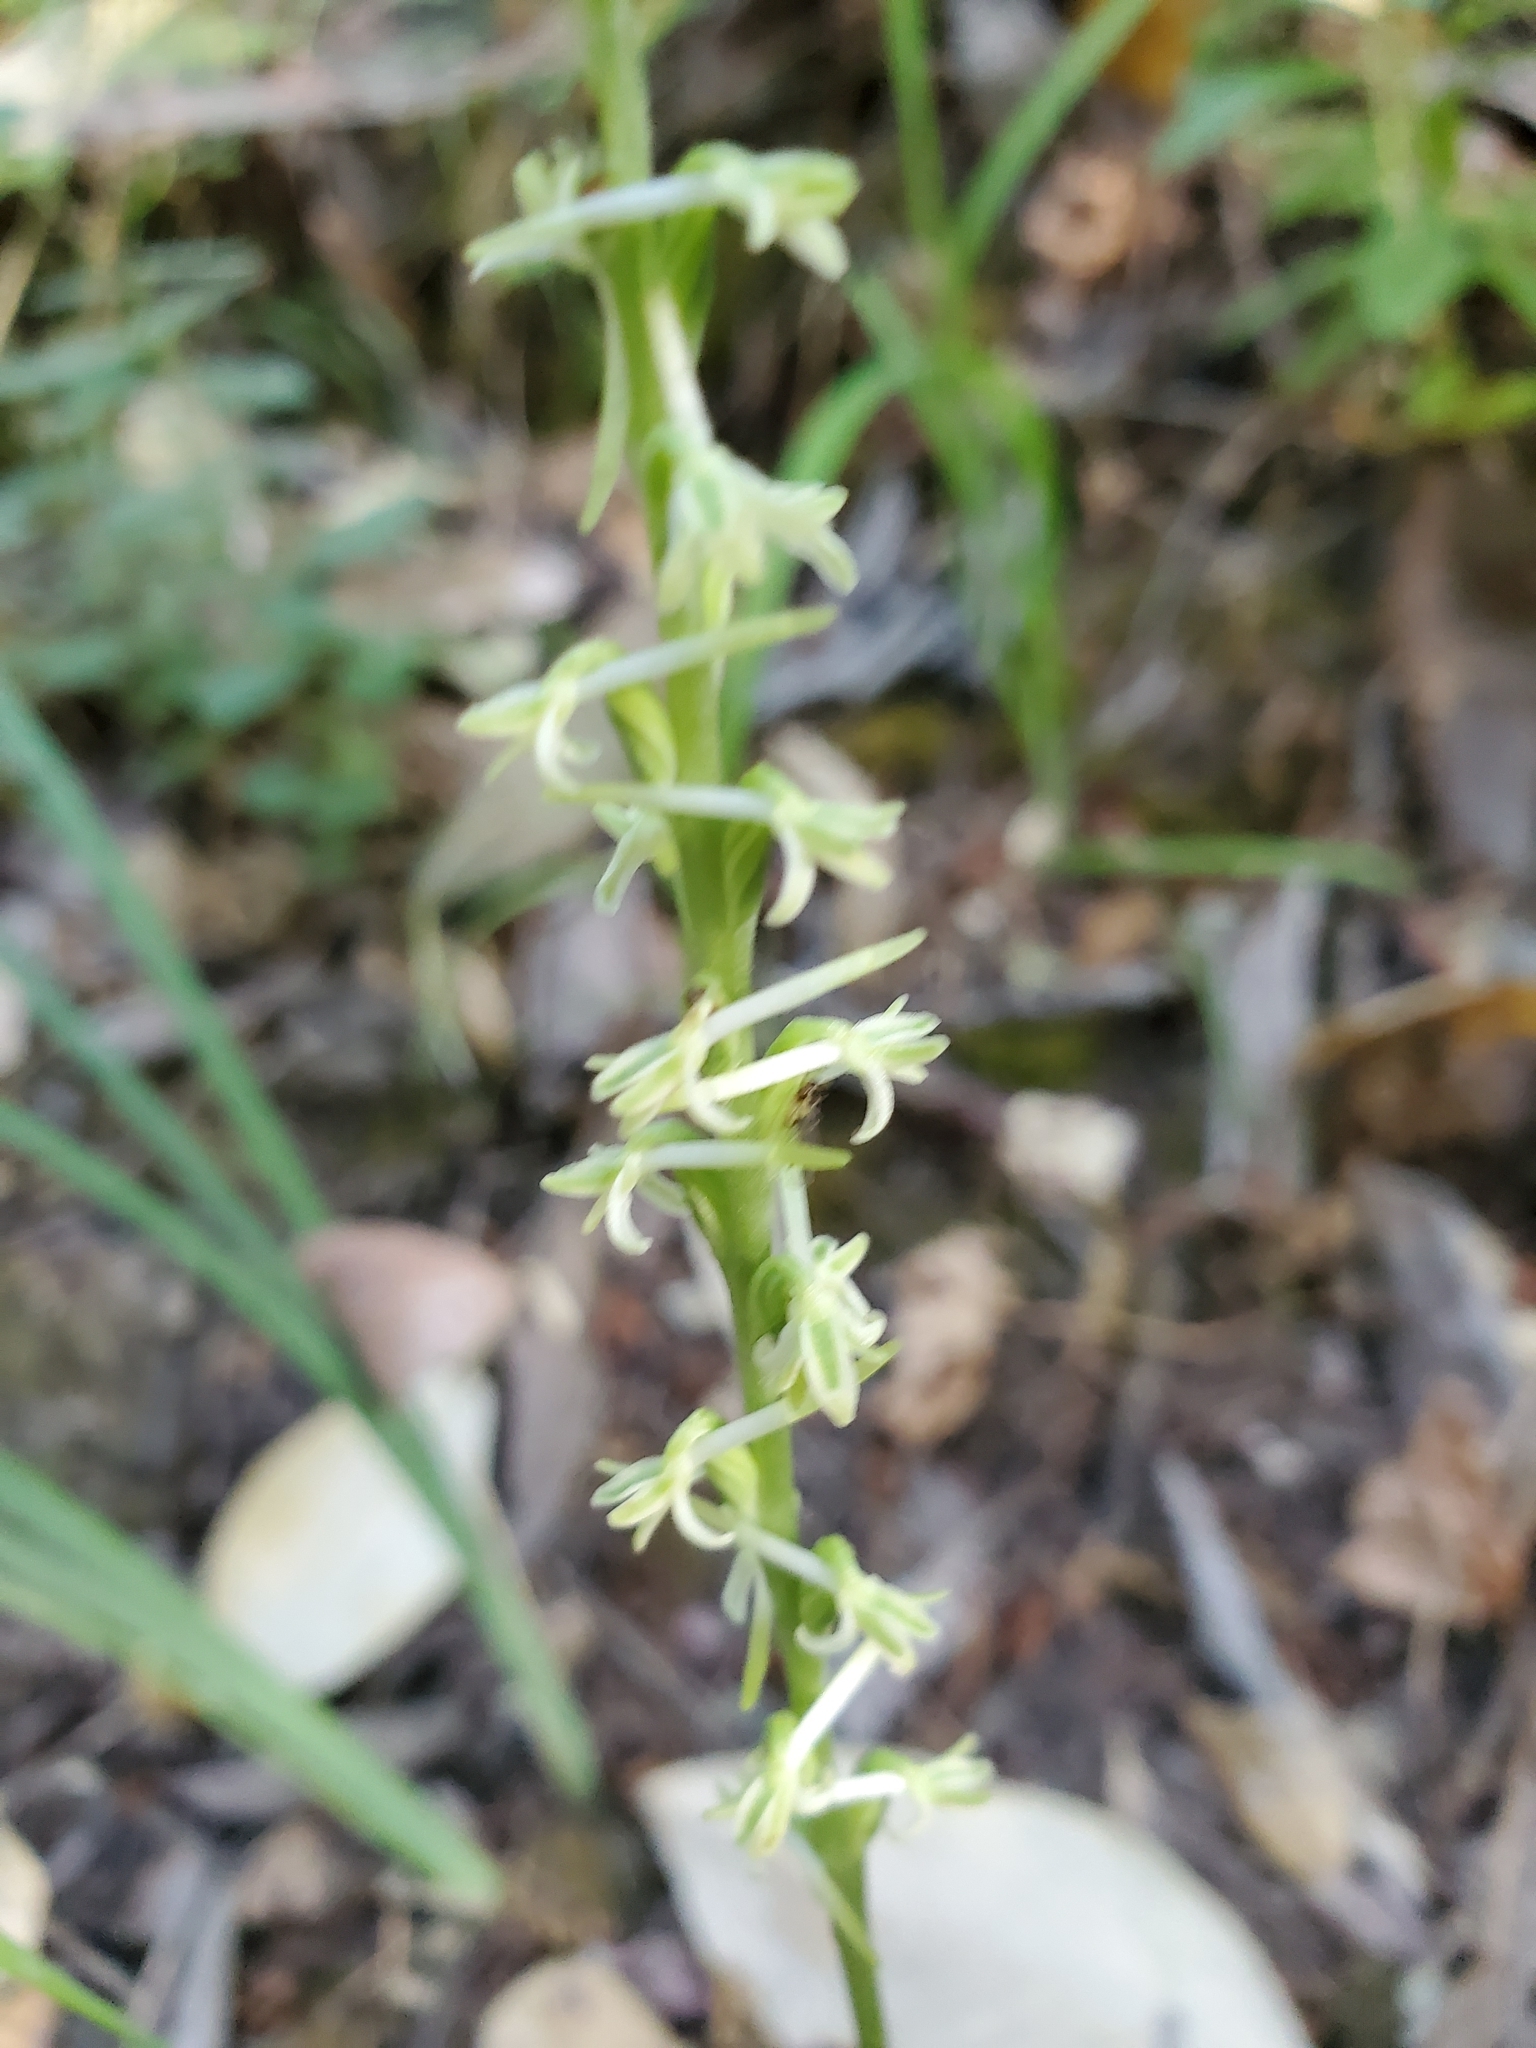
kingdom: Plantae
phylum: Tracheophyta
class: Liliopsida
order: Asparagales
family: Orchidaceae
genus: Platanthera
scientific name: Platanthera transversa
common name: Royal rein orchid
